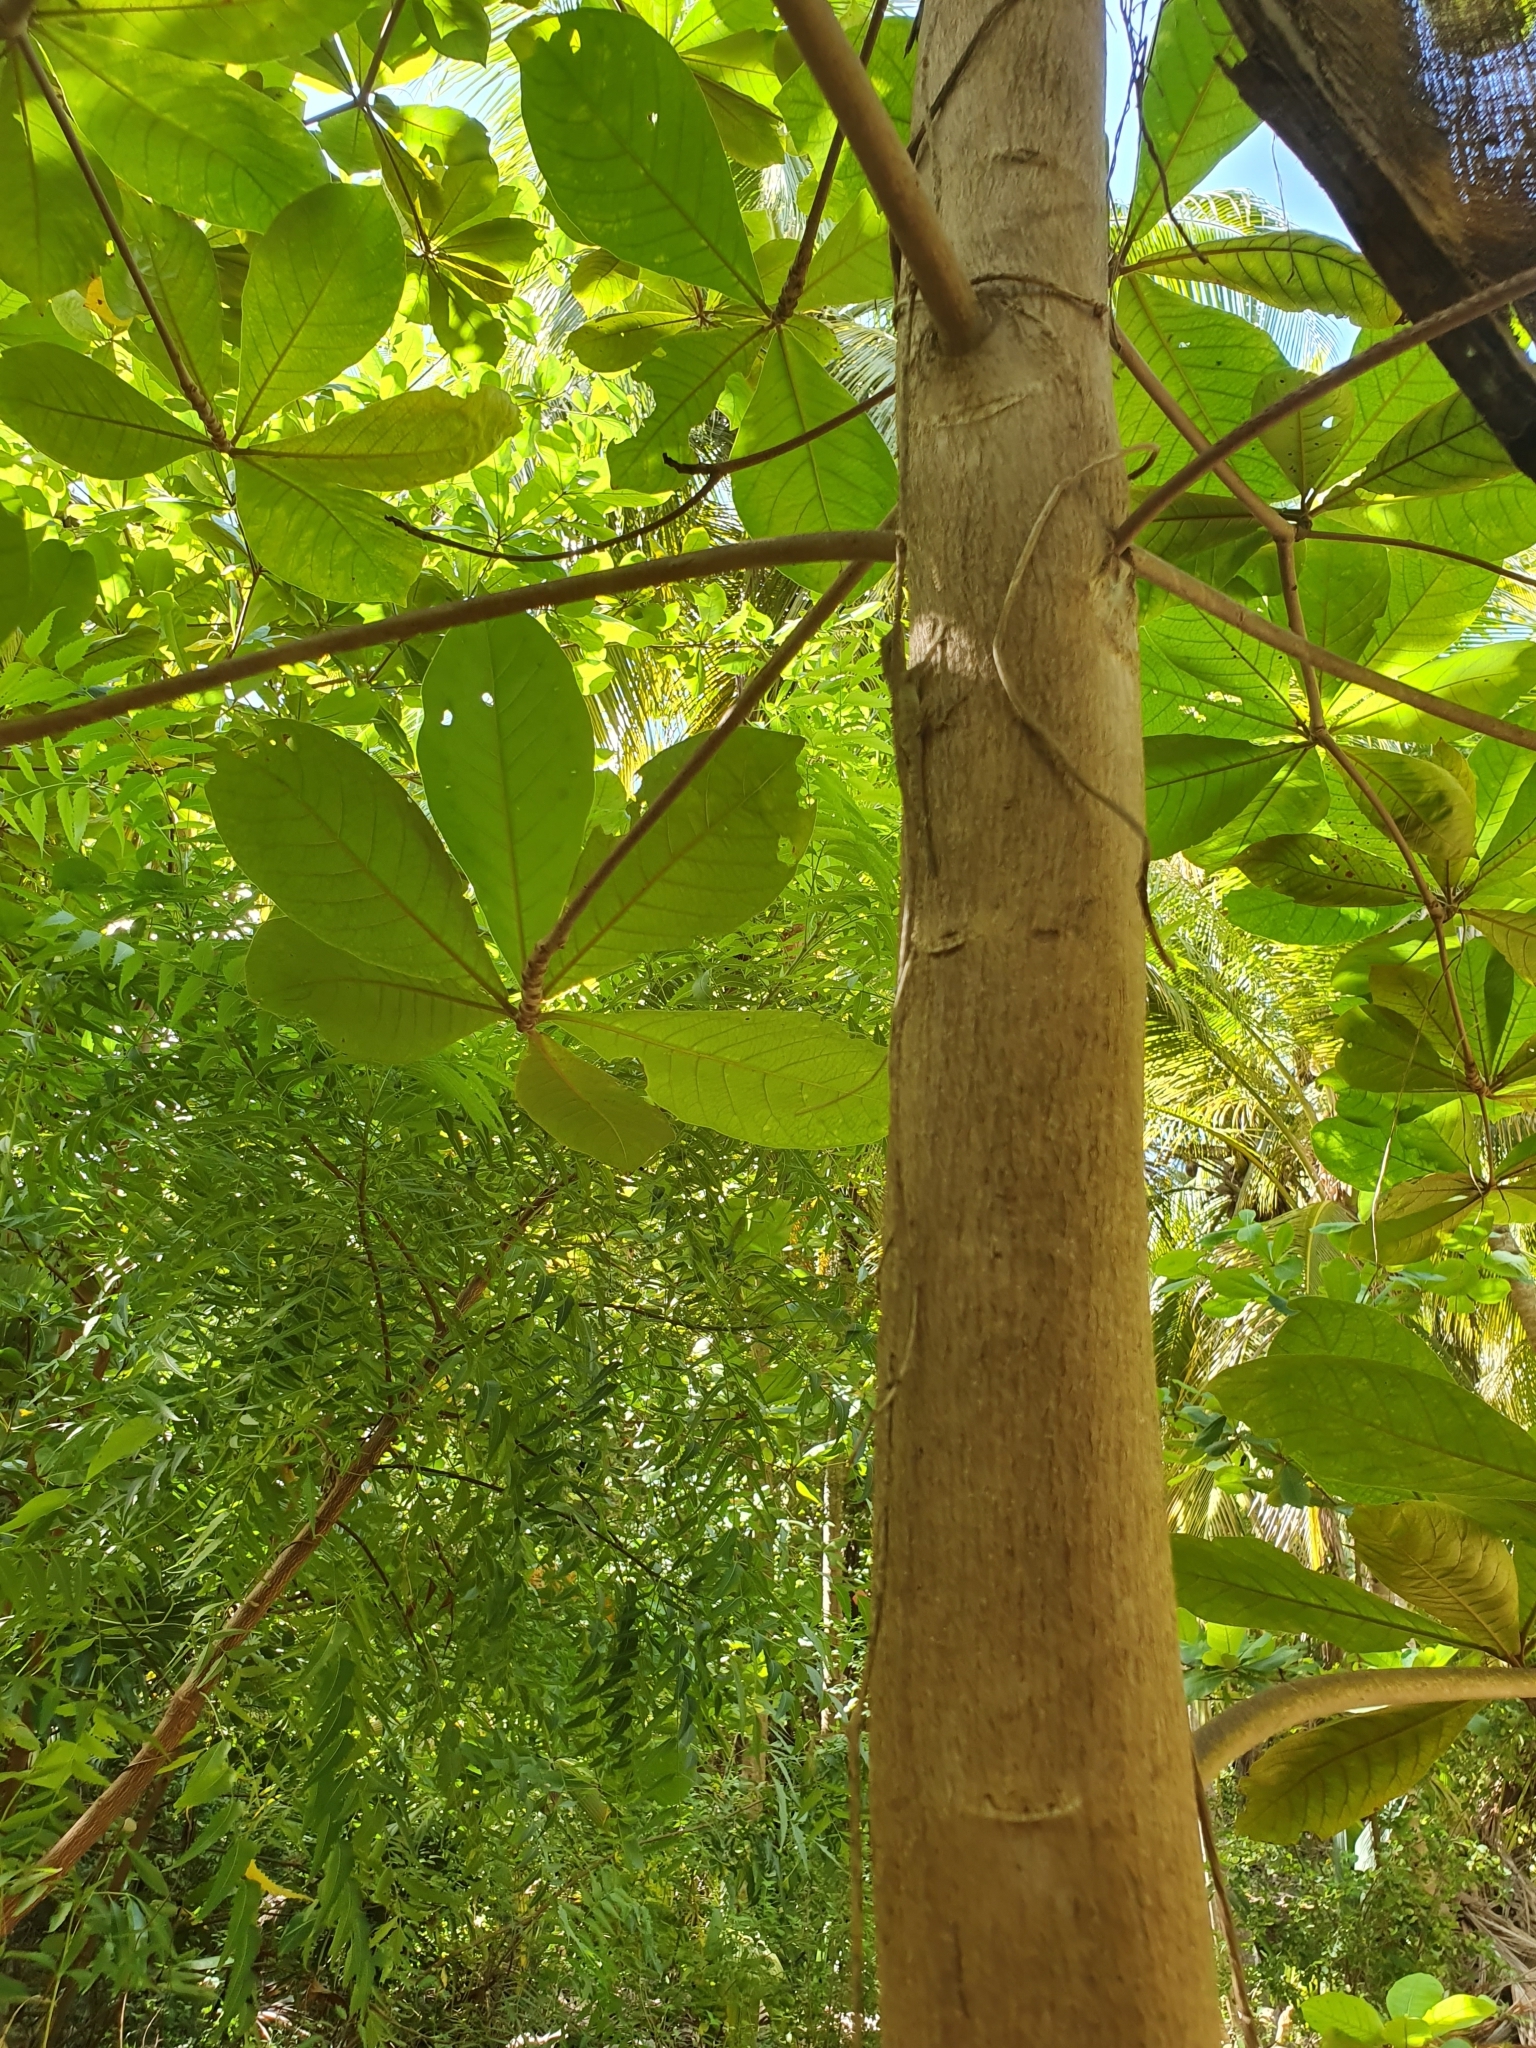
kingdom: Plantae
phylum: Tracheophyta
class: Magnoliopsida
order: Myrtales
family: Combretaceae
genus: Terminalia
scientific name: Terminalia catappa
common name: Tropical almond
